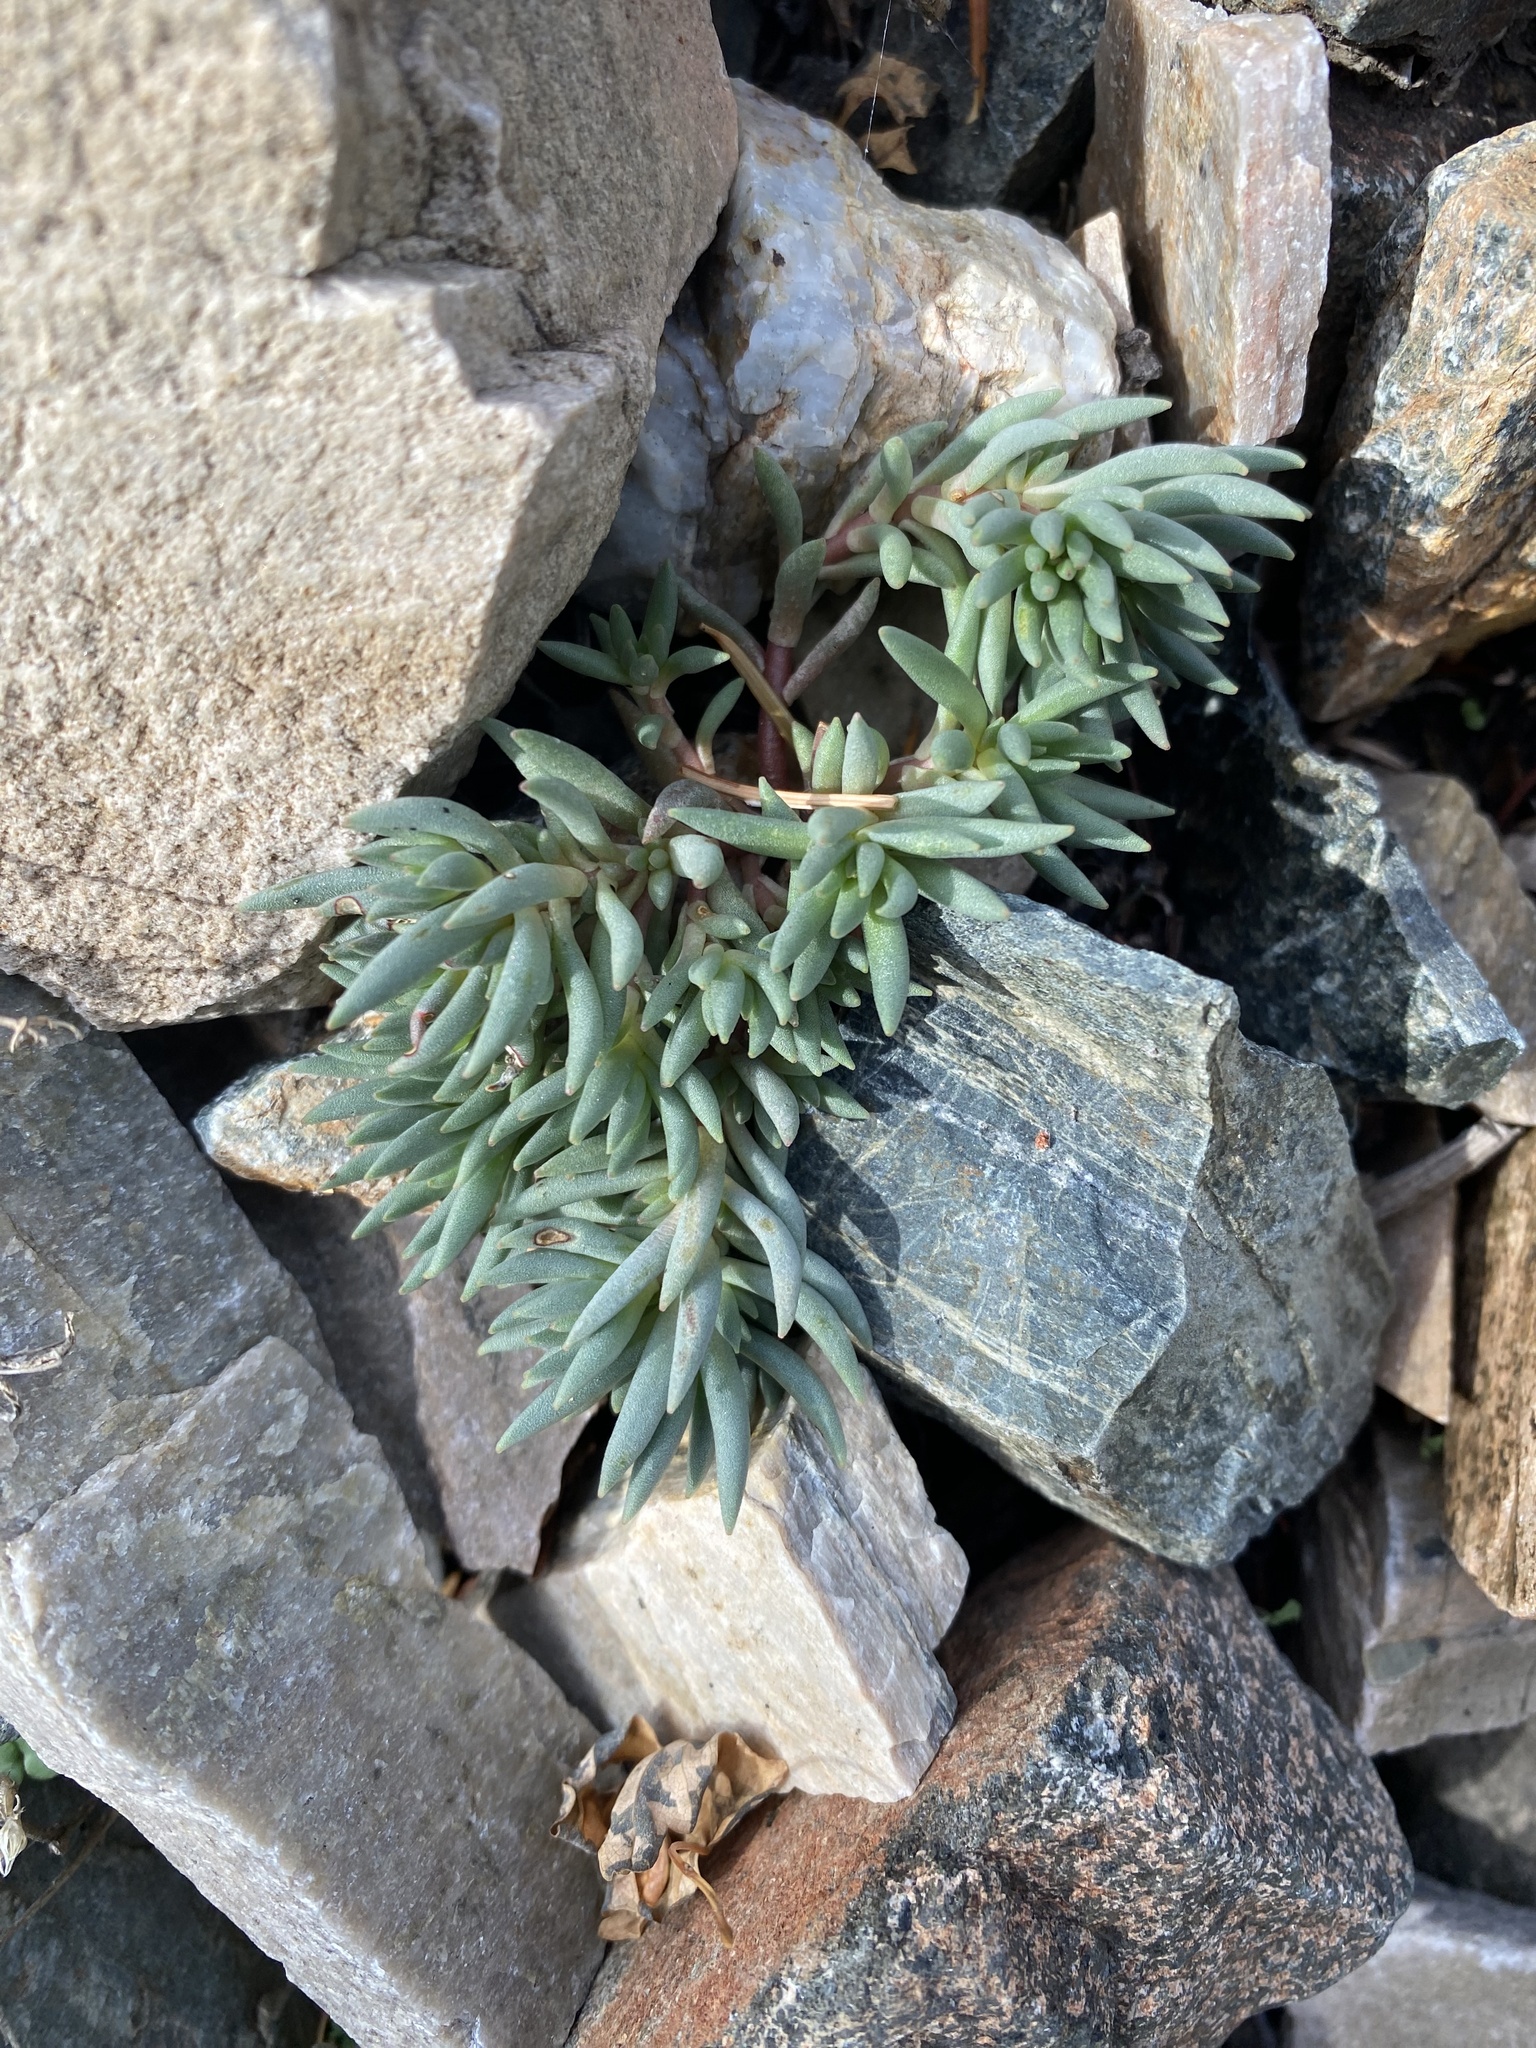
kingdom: Plantae
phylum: Tracheophyta
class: Magnoliopsida
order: Saxifragales
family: Crassulaceae
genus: Sedum
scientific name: Sedum lanceolatum
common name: Common stonecrop
